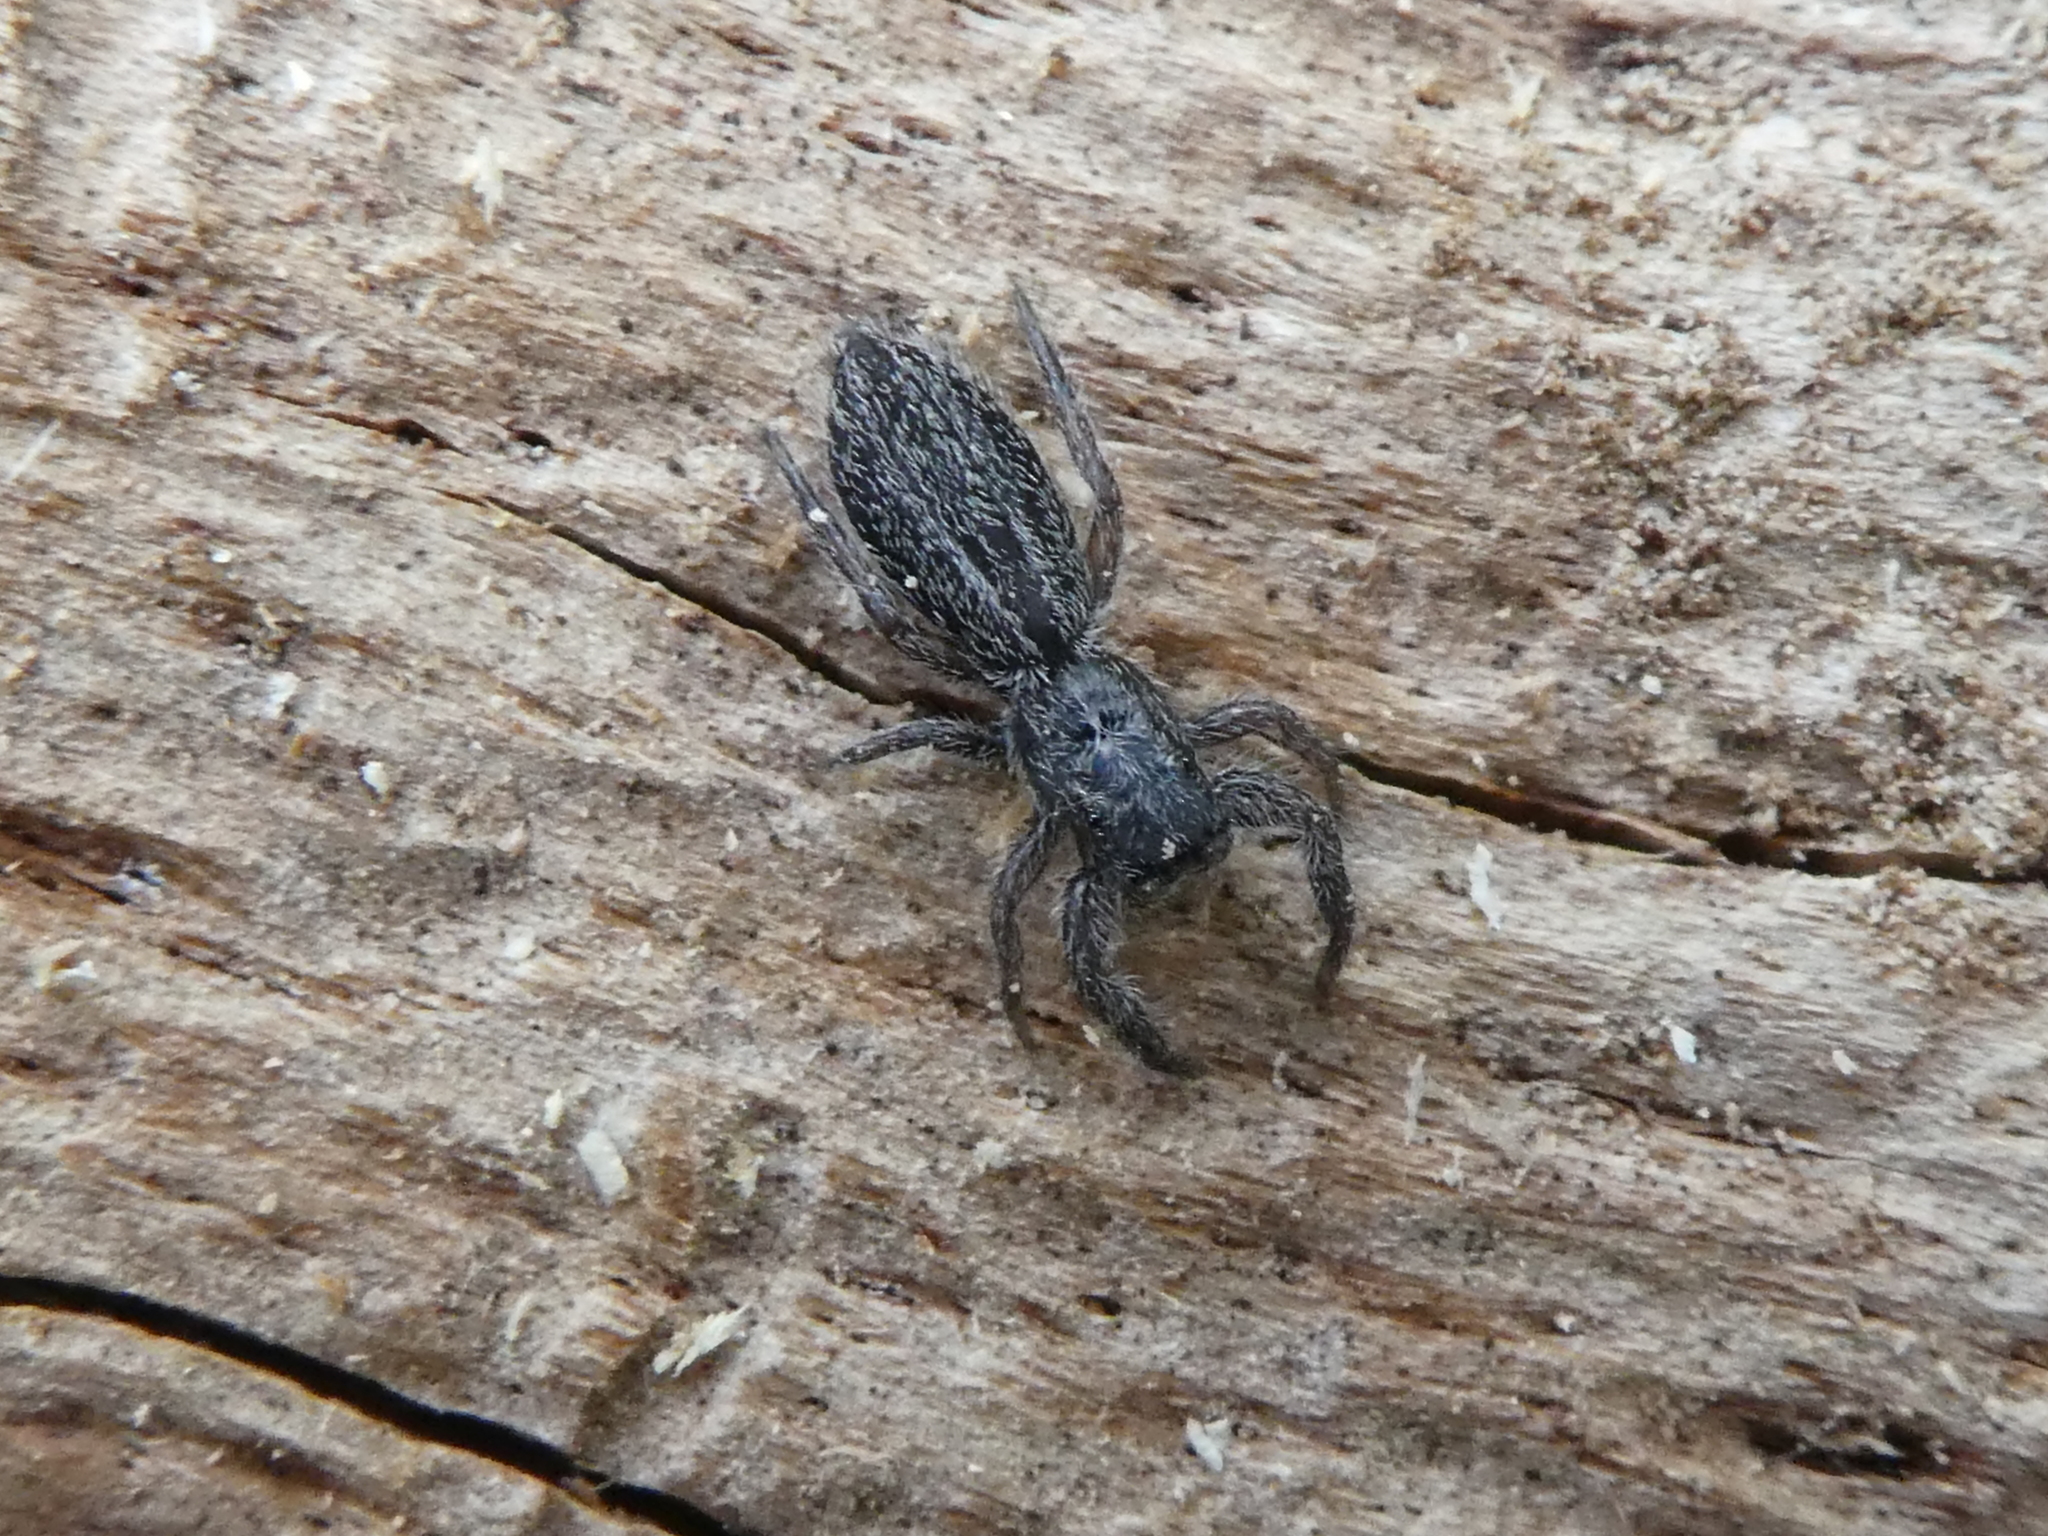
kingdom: Animalia
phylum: Arthropoda
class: Arachnida
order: Araneae
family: Salticidae
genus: Holoplatys
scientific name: Holoplatys apressus
